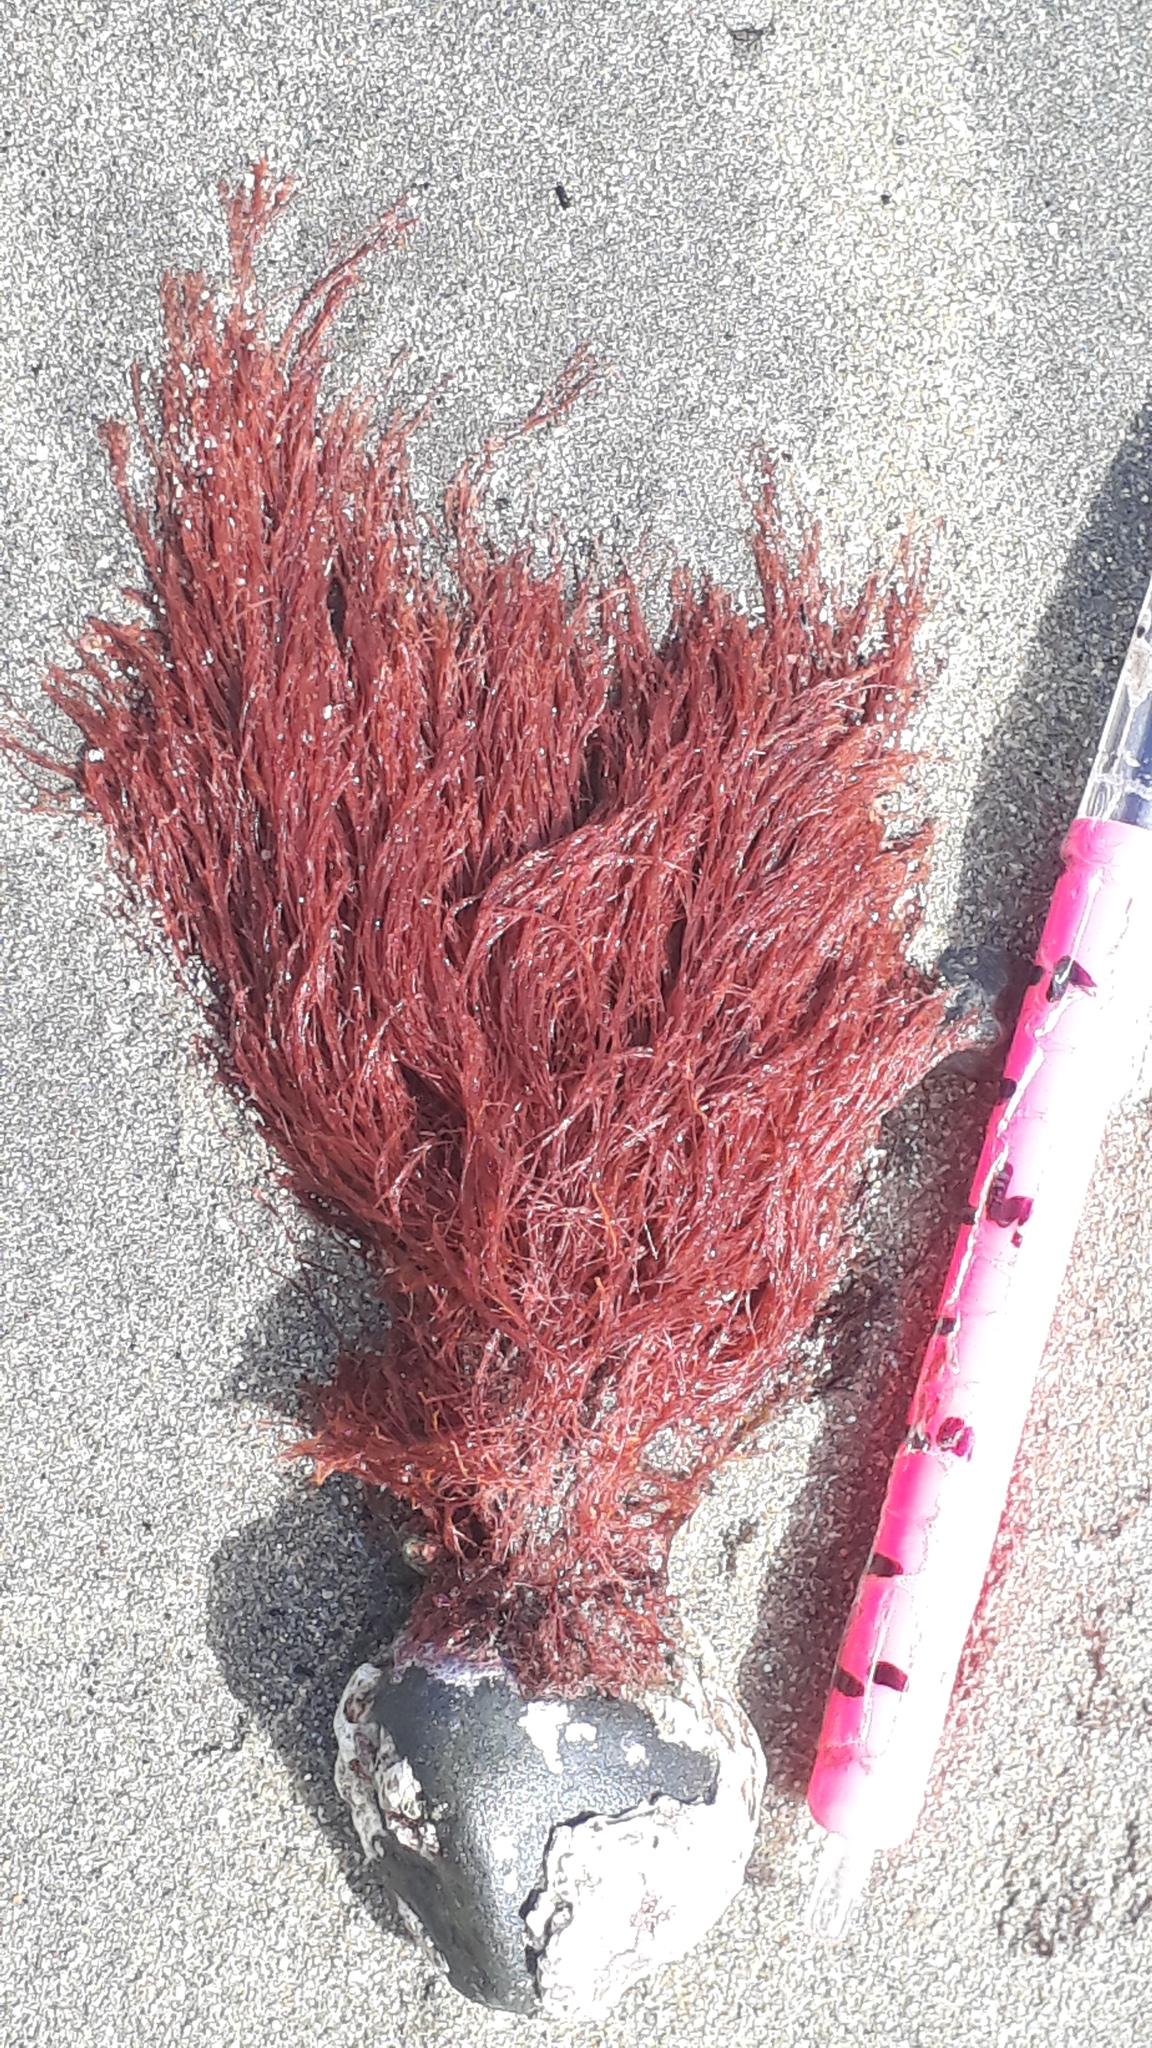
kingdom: Plantae
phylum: Rhodophyta
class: Florideophyceae
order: Ceramiales
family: Wrangeliaceae
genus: Anotrichium
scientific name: Anotrichium crinitum
